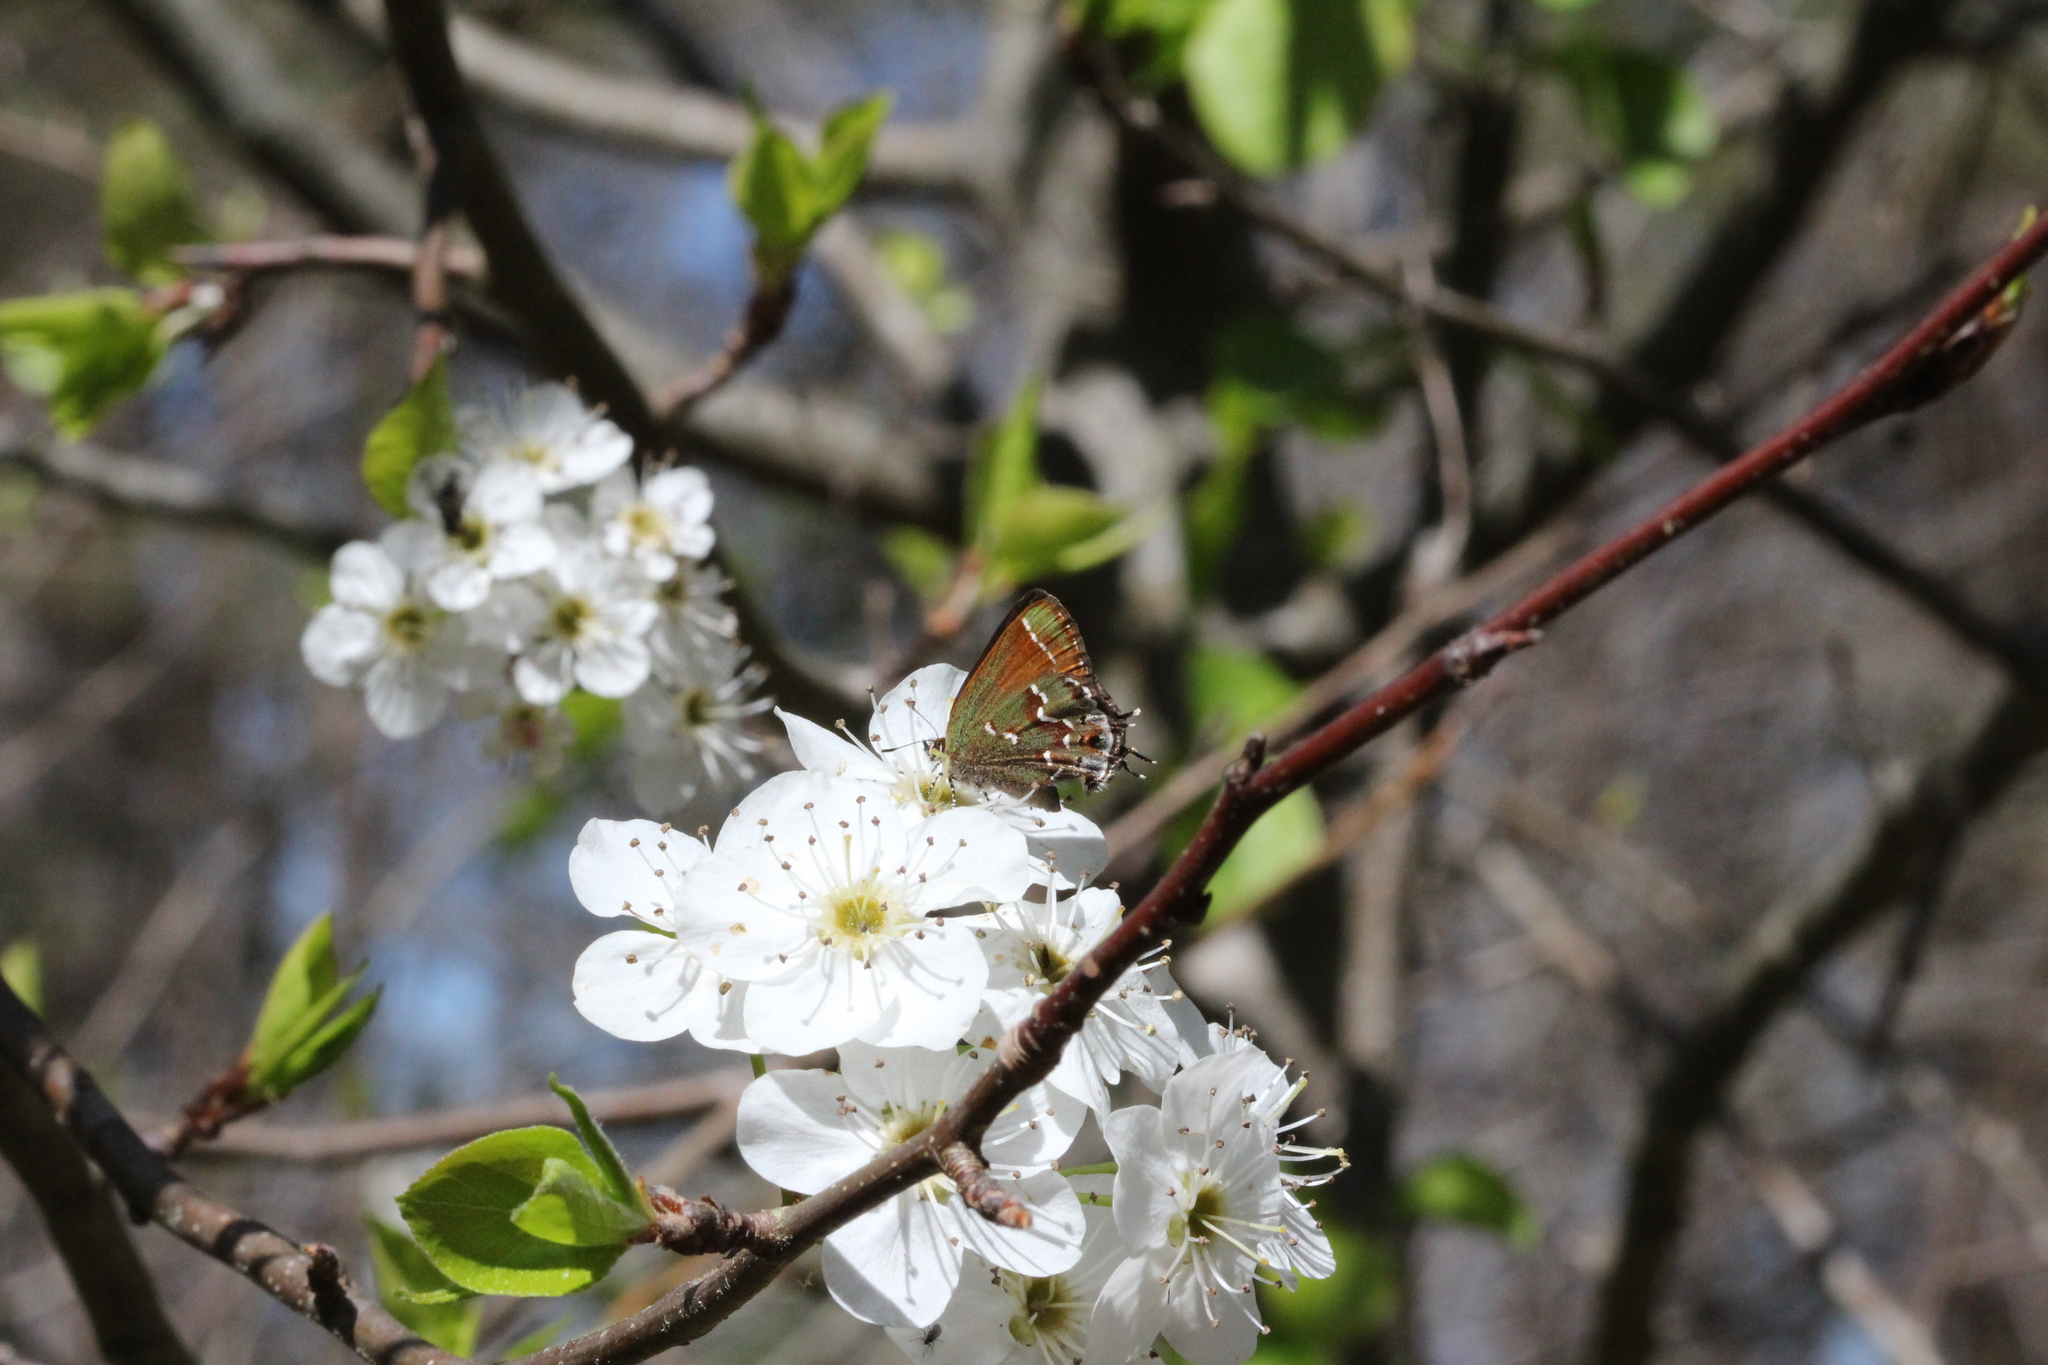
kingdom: Animalia
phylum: Arthropoda
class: Insecta
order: Lepidoptera
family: Lycaenidae
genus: Mitoura
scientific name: Mitoura gryneus
